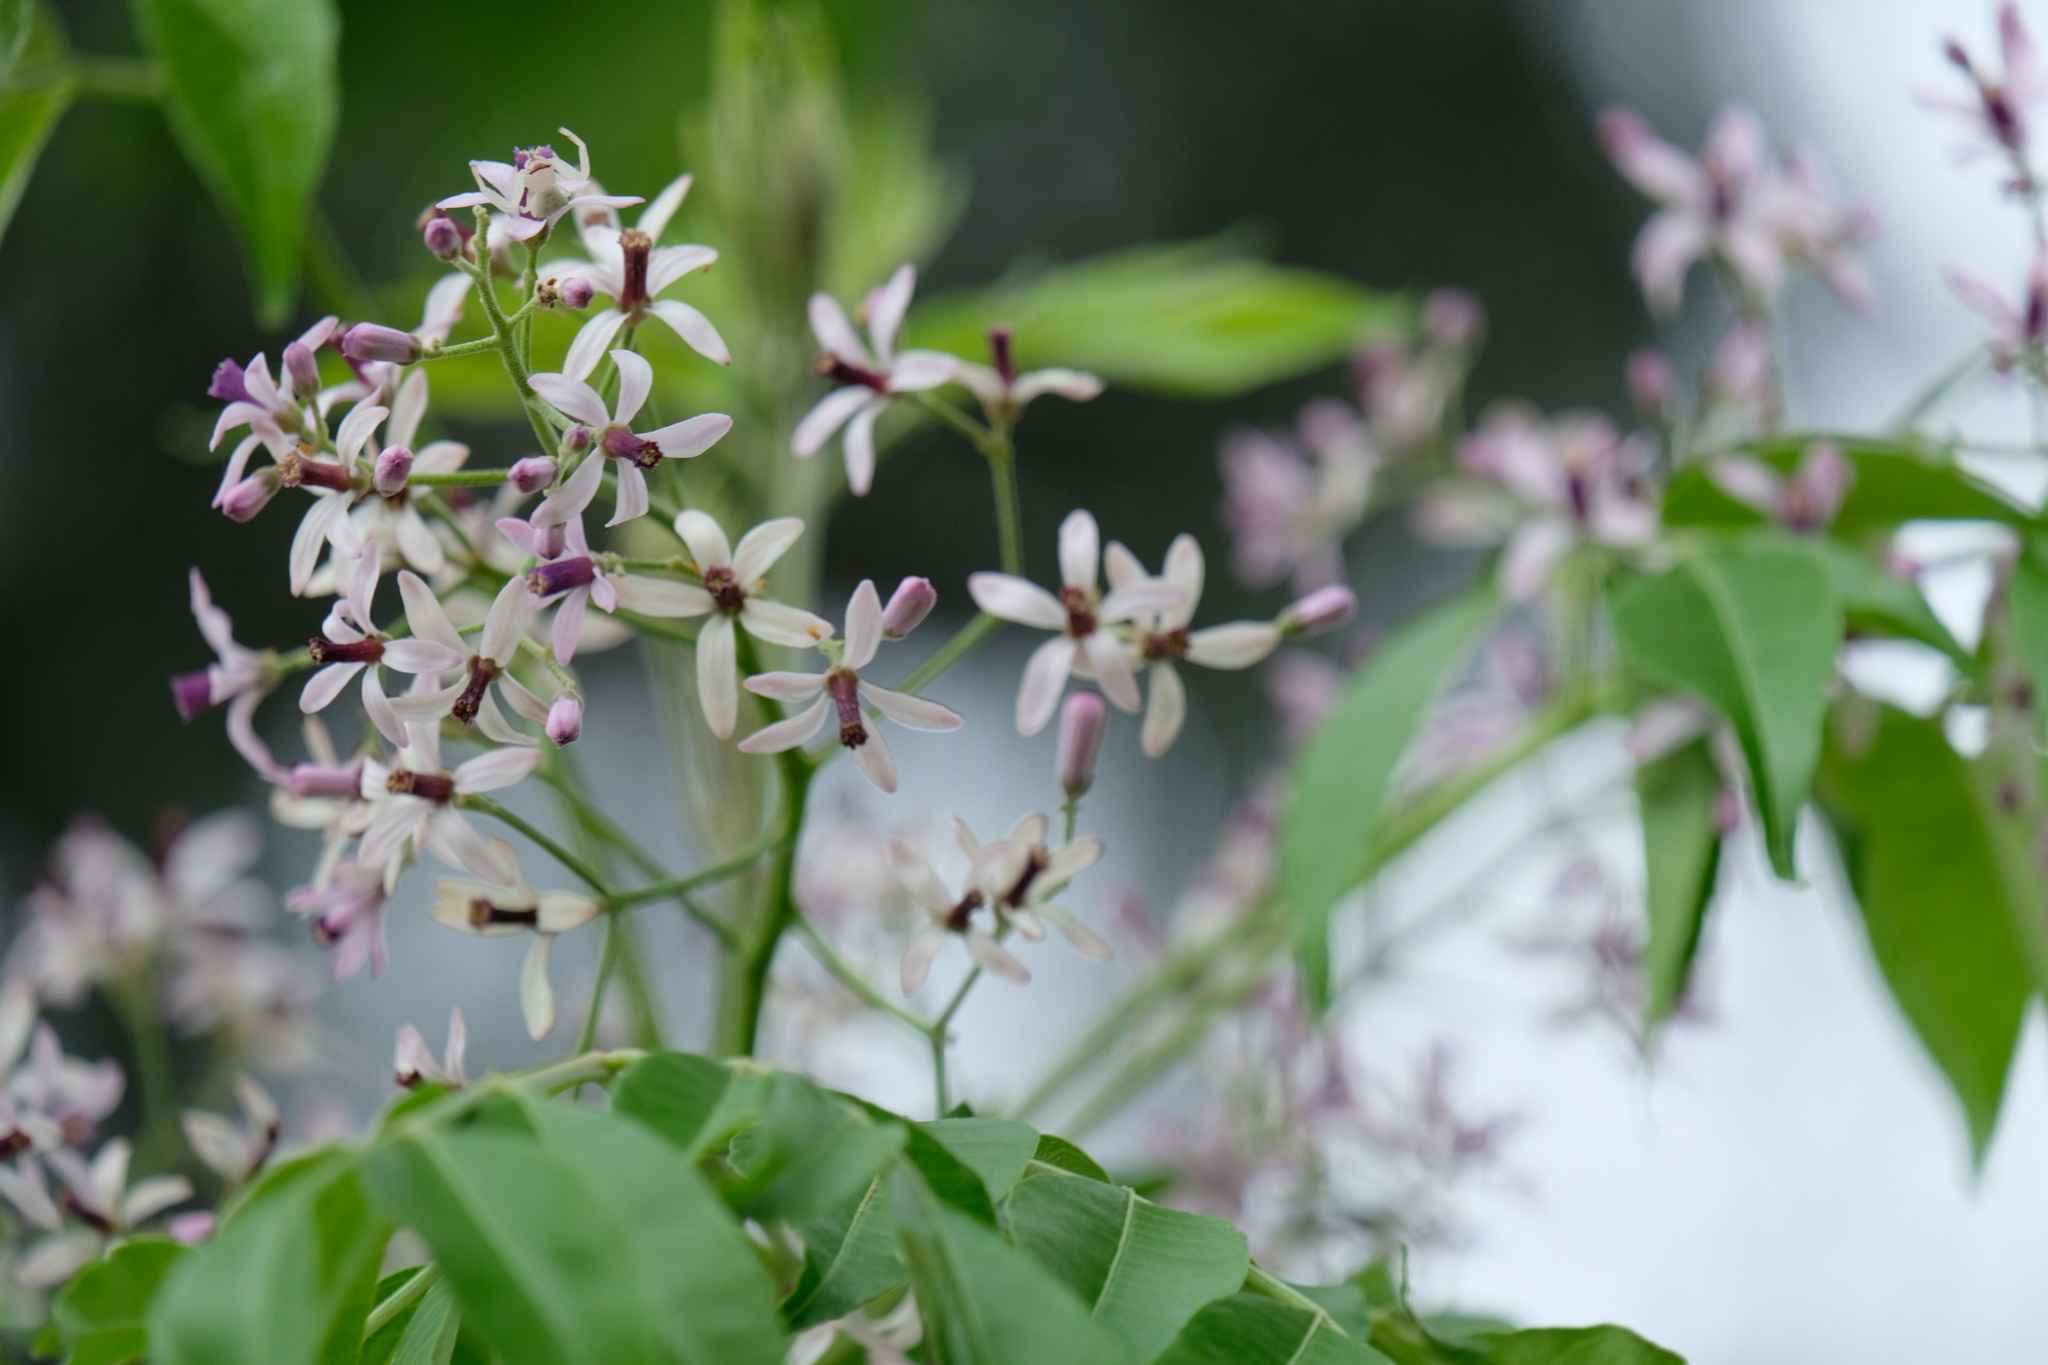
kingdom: Plantae
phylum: Tracheophyta
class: Magnoliopsida
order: Sapindales
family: Meliaceae
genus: Melia
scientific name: Melia azedarach
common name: Chinaberrytree
